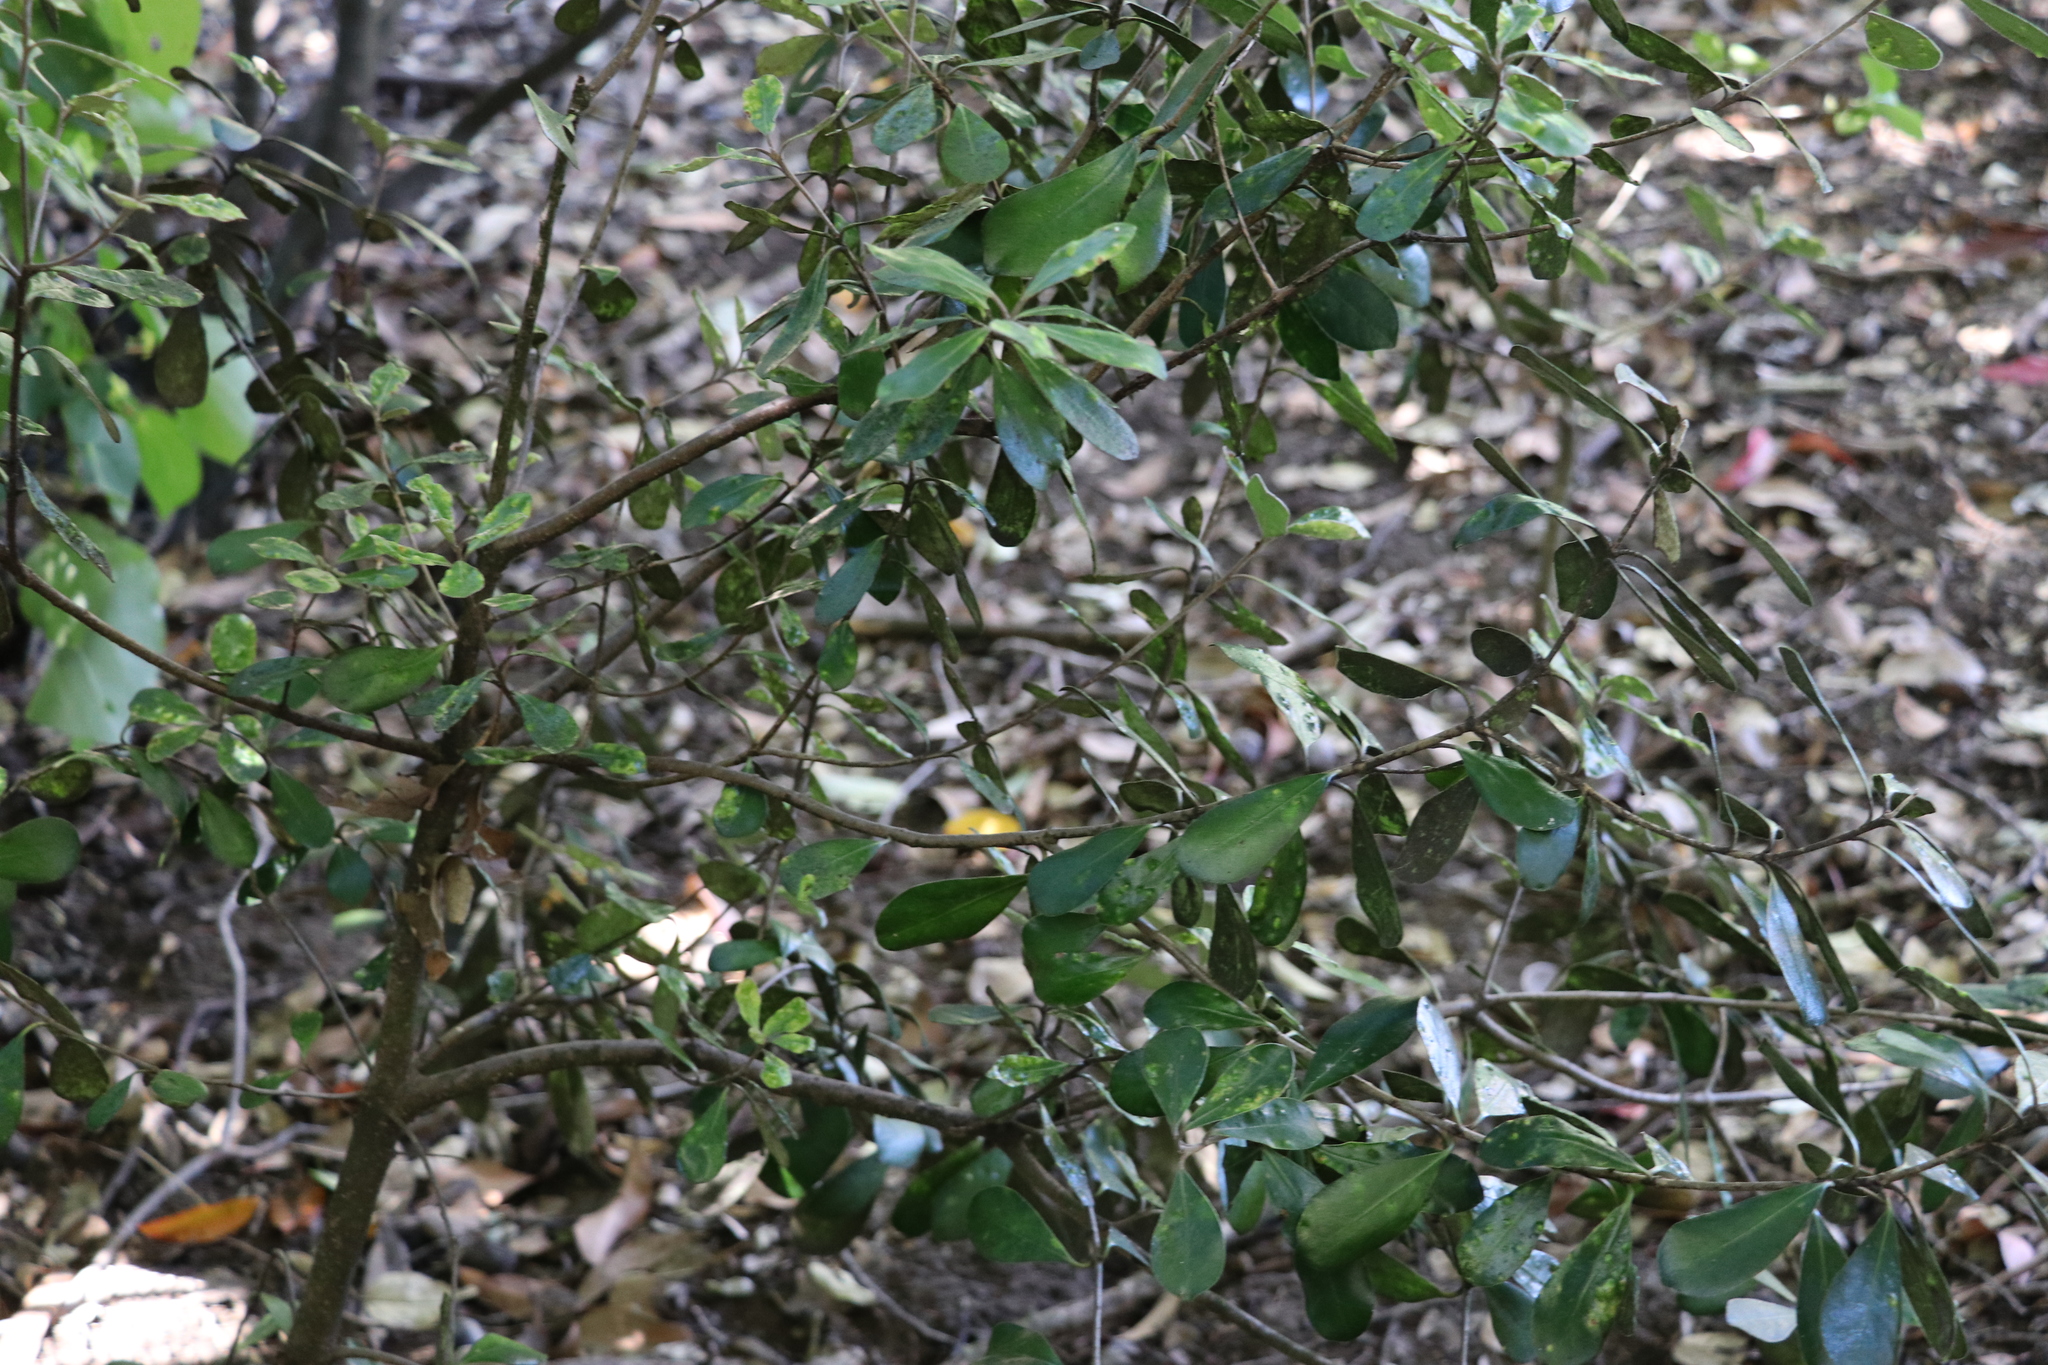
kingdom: Plantae
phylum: Tracheophyta
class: Magnoliopsida
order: Apiales
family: Pittosporaceae
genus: Pittosporum
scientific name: Pittosporum crassifolium
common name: Karo
